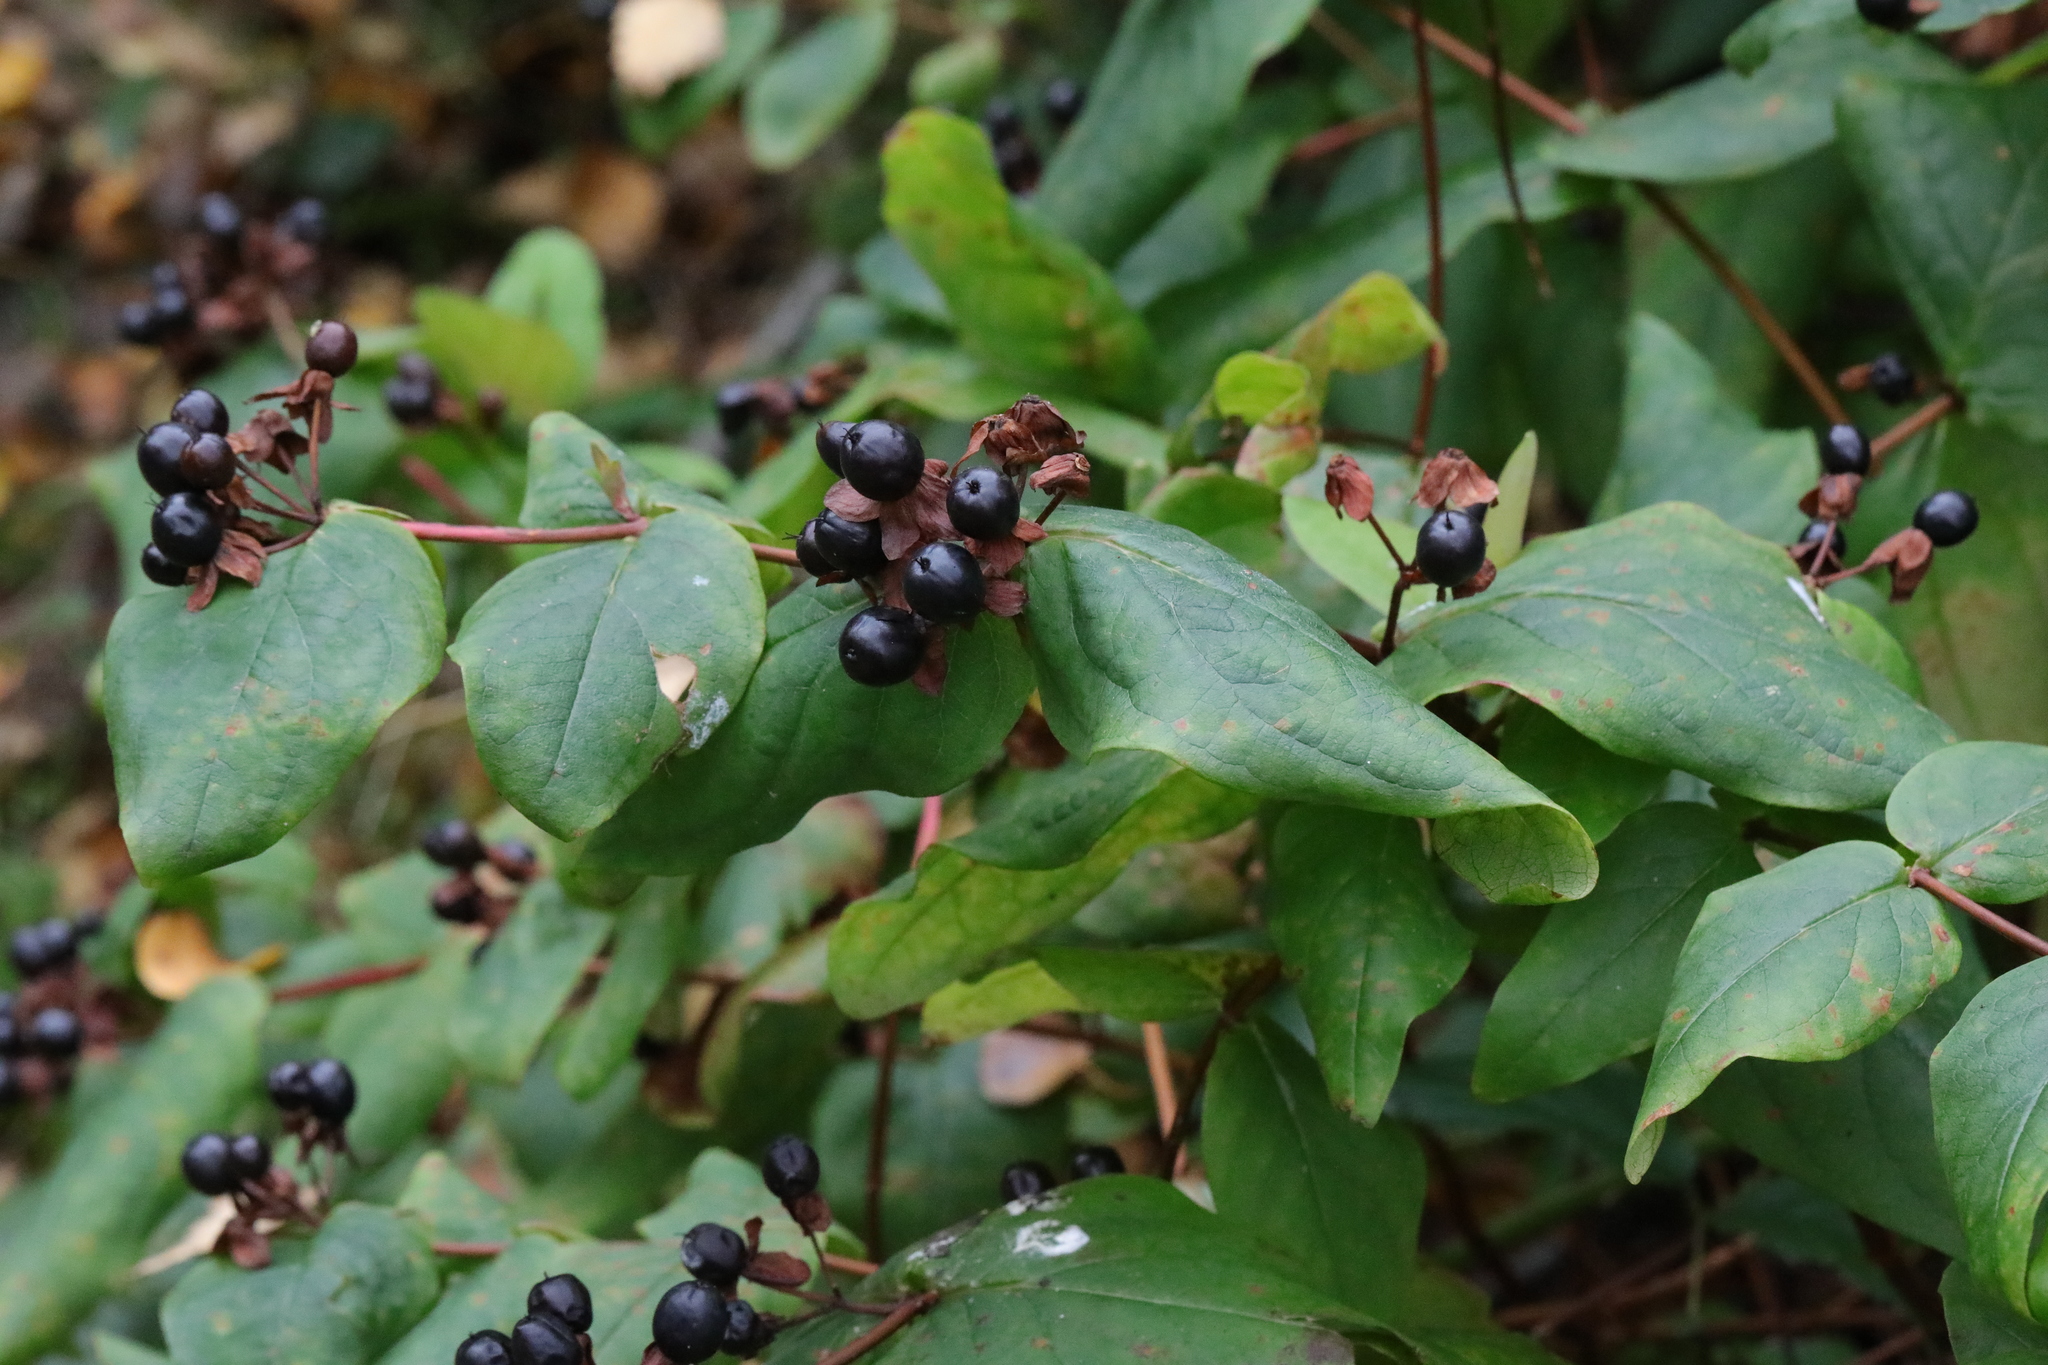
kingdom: Plantae
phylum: Tracheophyta
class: Magnoliopsida
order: Malpighiales
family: Hypericaceae
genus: Hypericum
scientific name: Hypericum androsaemum
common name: Sweet-amber
